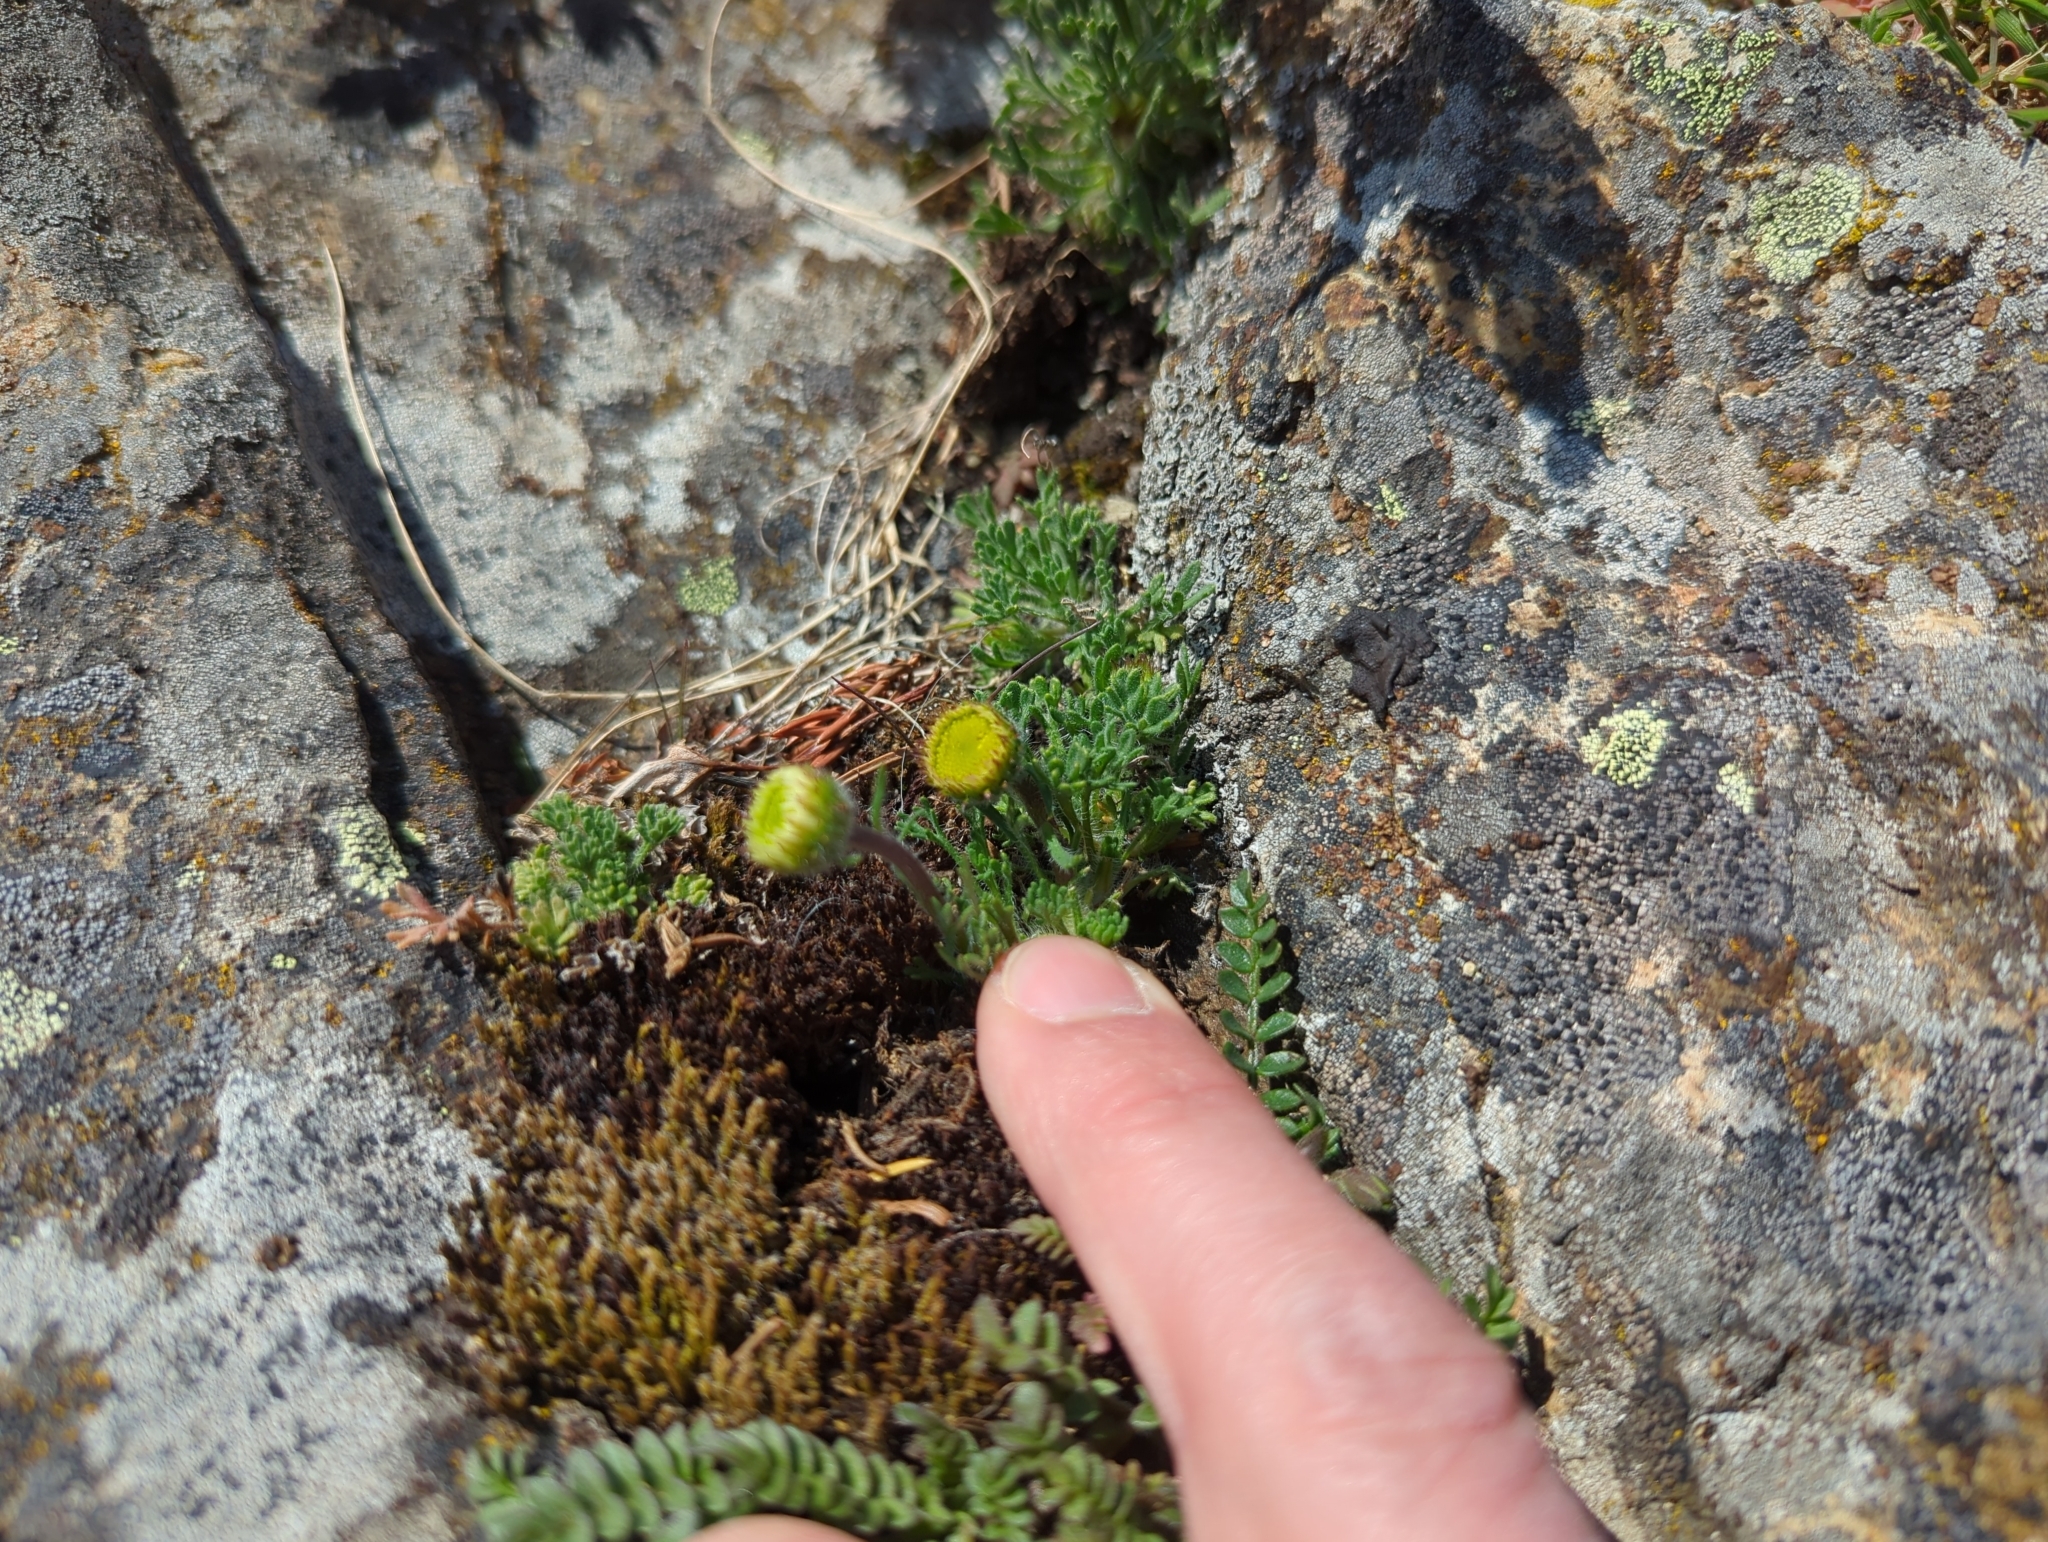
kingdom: Plantae
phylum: Tracheophyta
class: Magnoliopsida
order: Asterales
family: Asteraceae
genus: Erigeron
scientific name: Erigeron compositus
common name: Dwarf mountain fleabane
